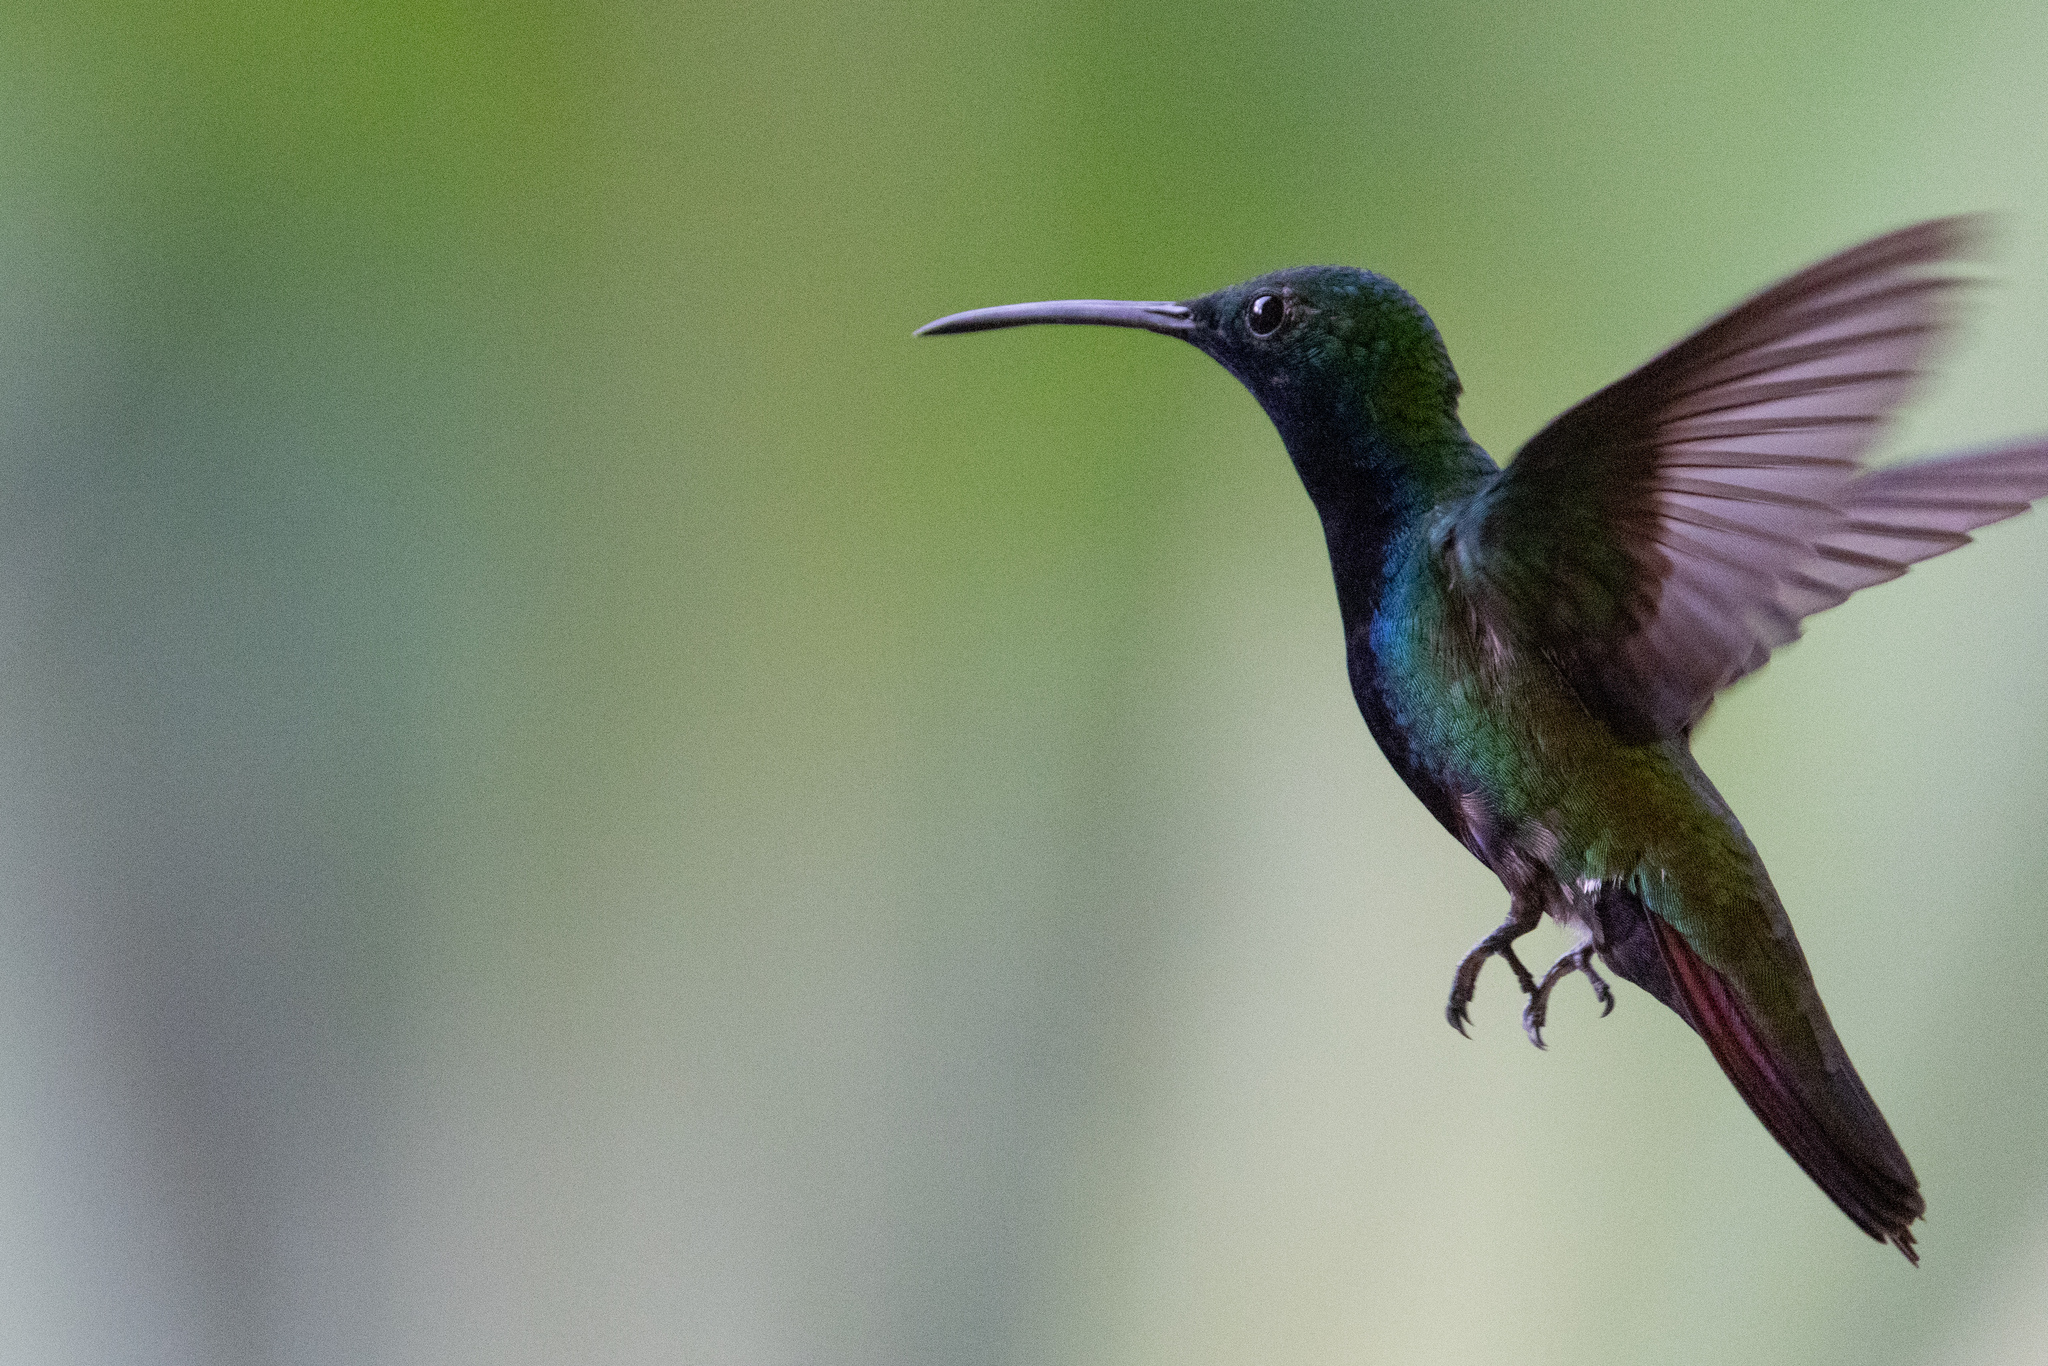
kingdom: Animalia
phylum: Chordata
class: Aves
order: Apodiformes
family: Trochilidae
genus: Anthracothorax
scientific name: Anthracothorax nigricollis
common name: Black-throated mango
